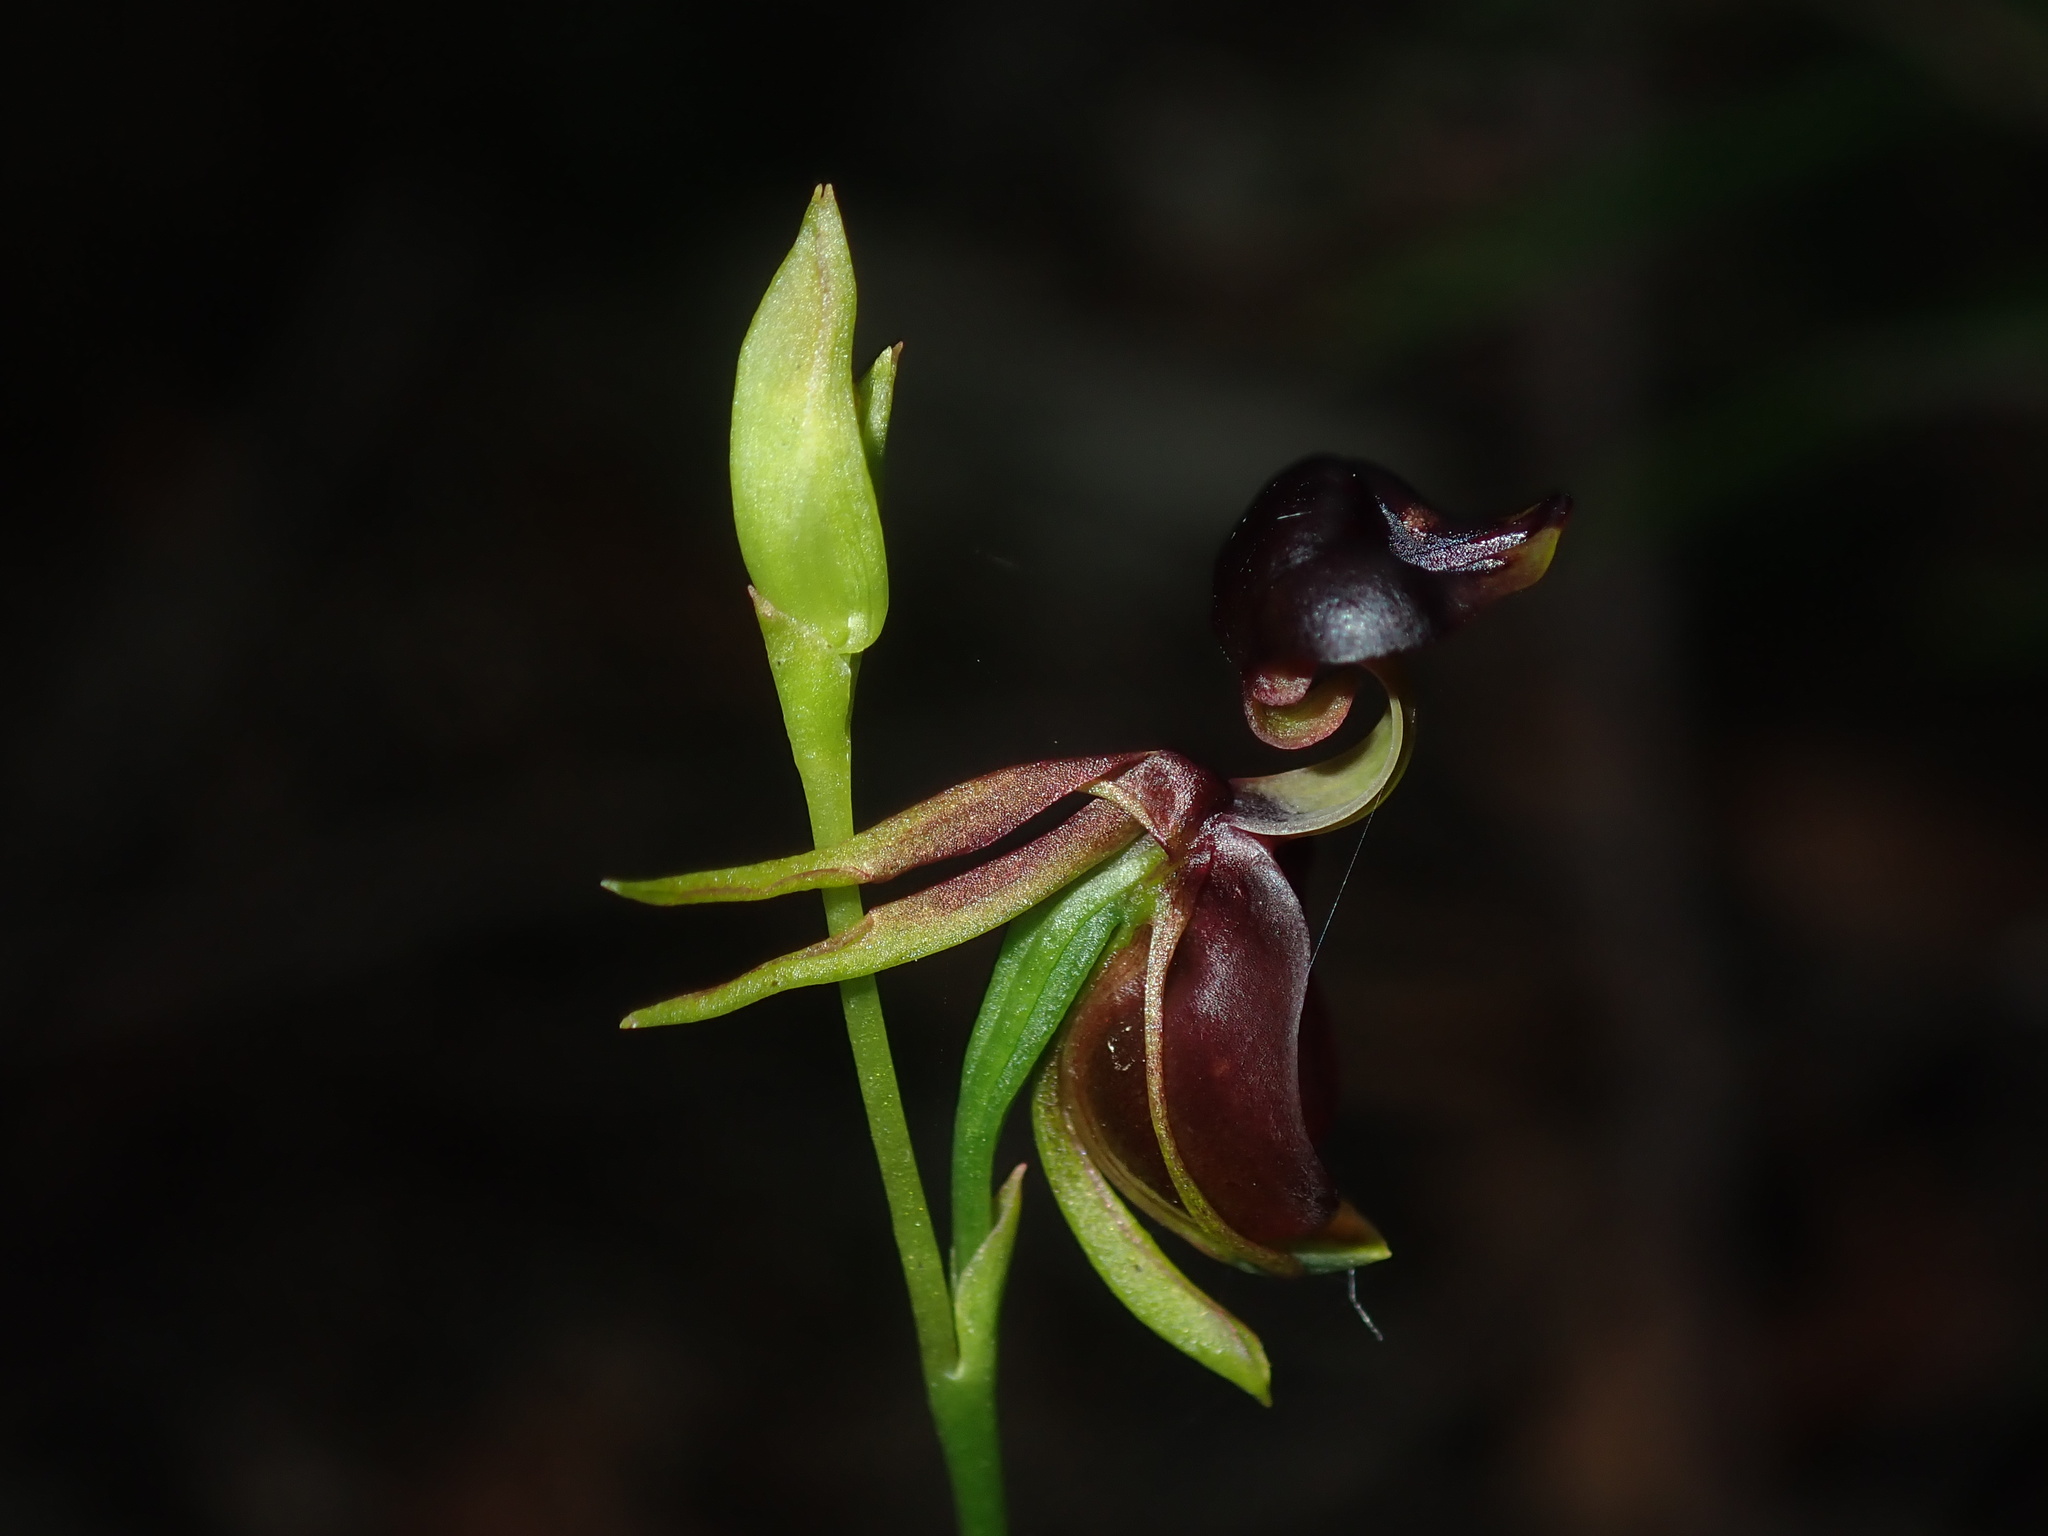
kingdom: Plantae
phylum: Tracheophyta
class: Liliopsida
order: Asparagales
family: Orchidaceae
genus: Caleana
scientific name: Caleana major
